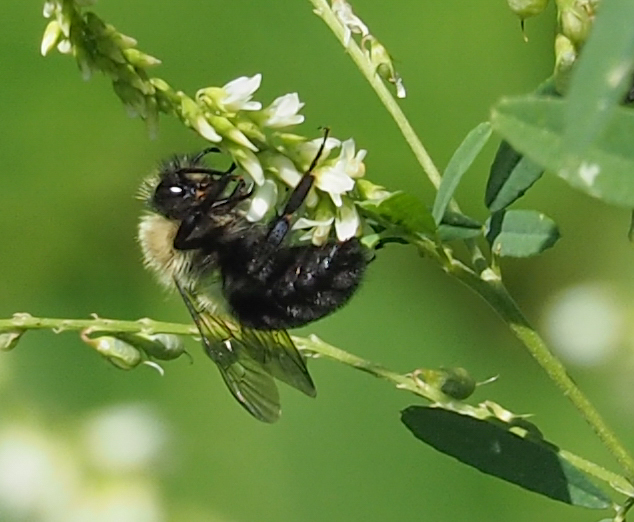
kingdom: Animalia
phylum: Arthropoda
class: Insecta
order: Hymenoptera
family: Apidae
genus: Bombus
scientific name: Bombus impatiens
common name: Common eastern bumble bee
